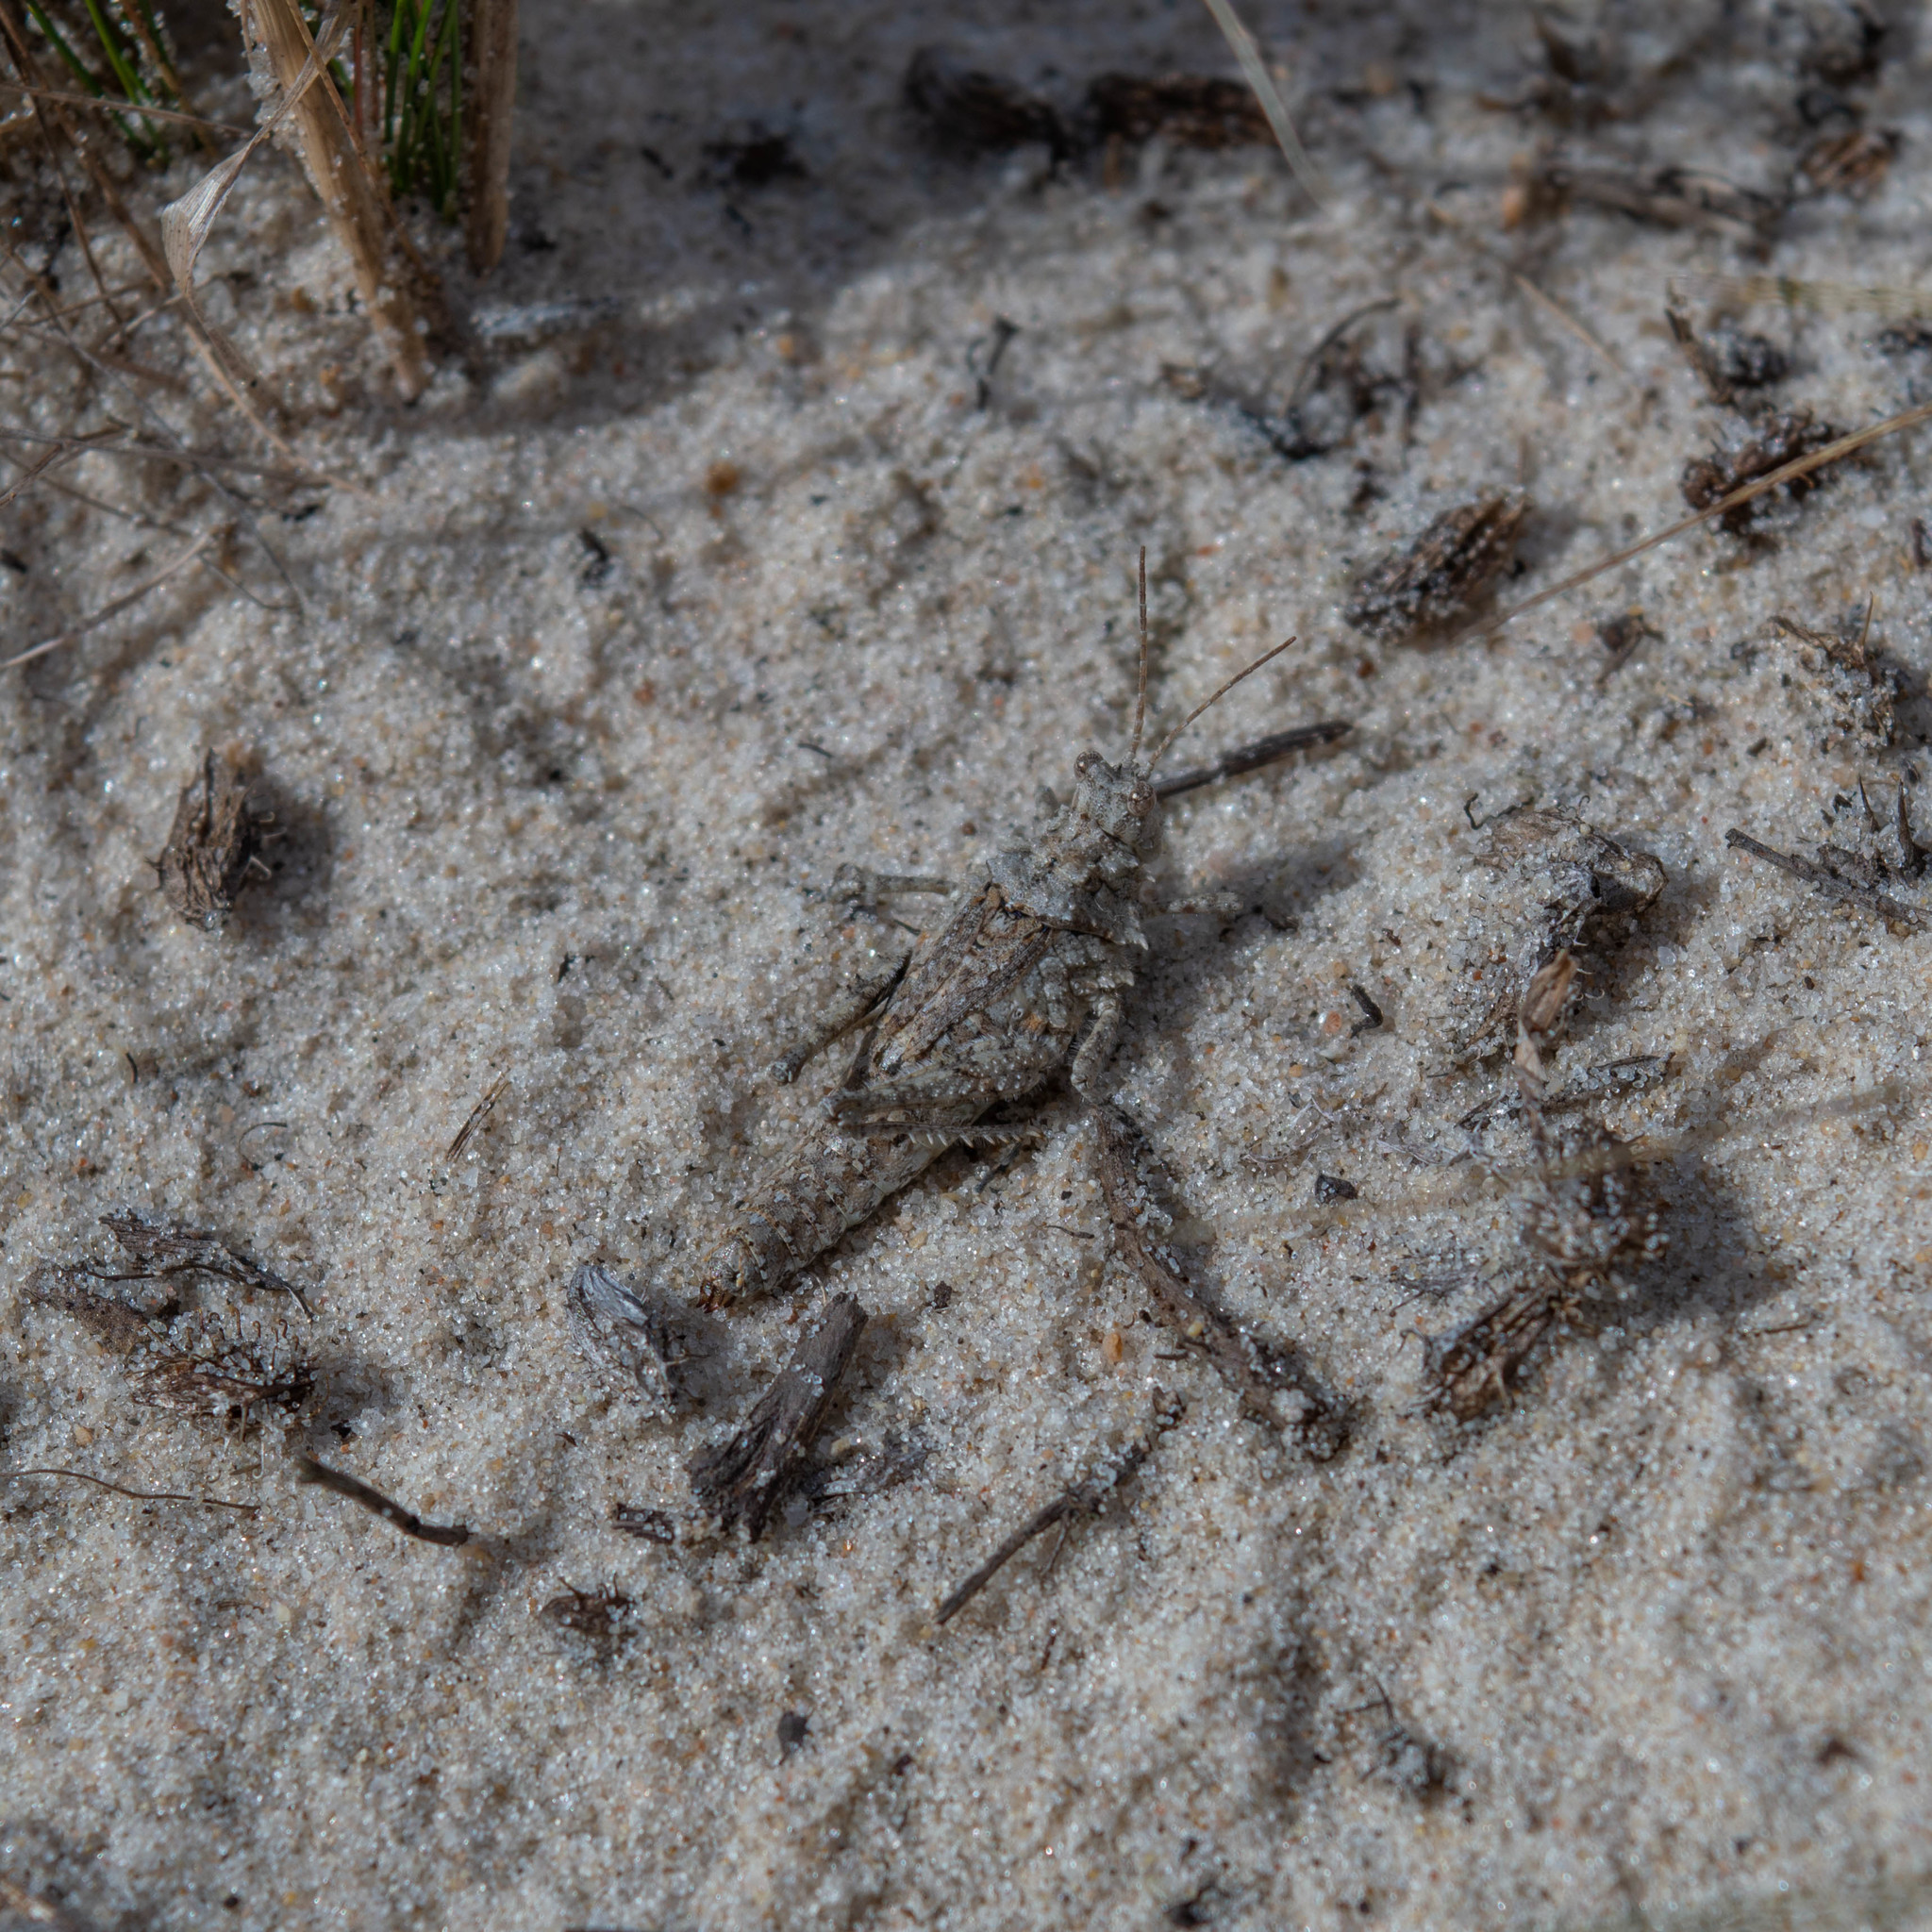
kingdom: Animalia
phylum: Arthropoda
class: Insecta
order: Orthoptera
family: Ommexechidae
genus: Ommexecha
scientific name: Ommexecha virens
